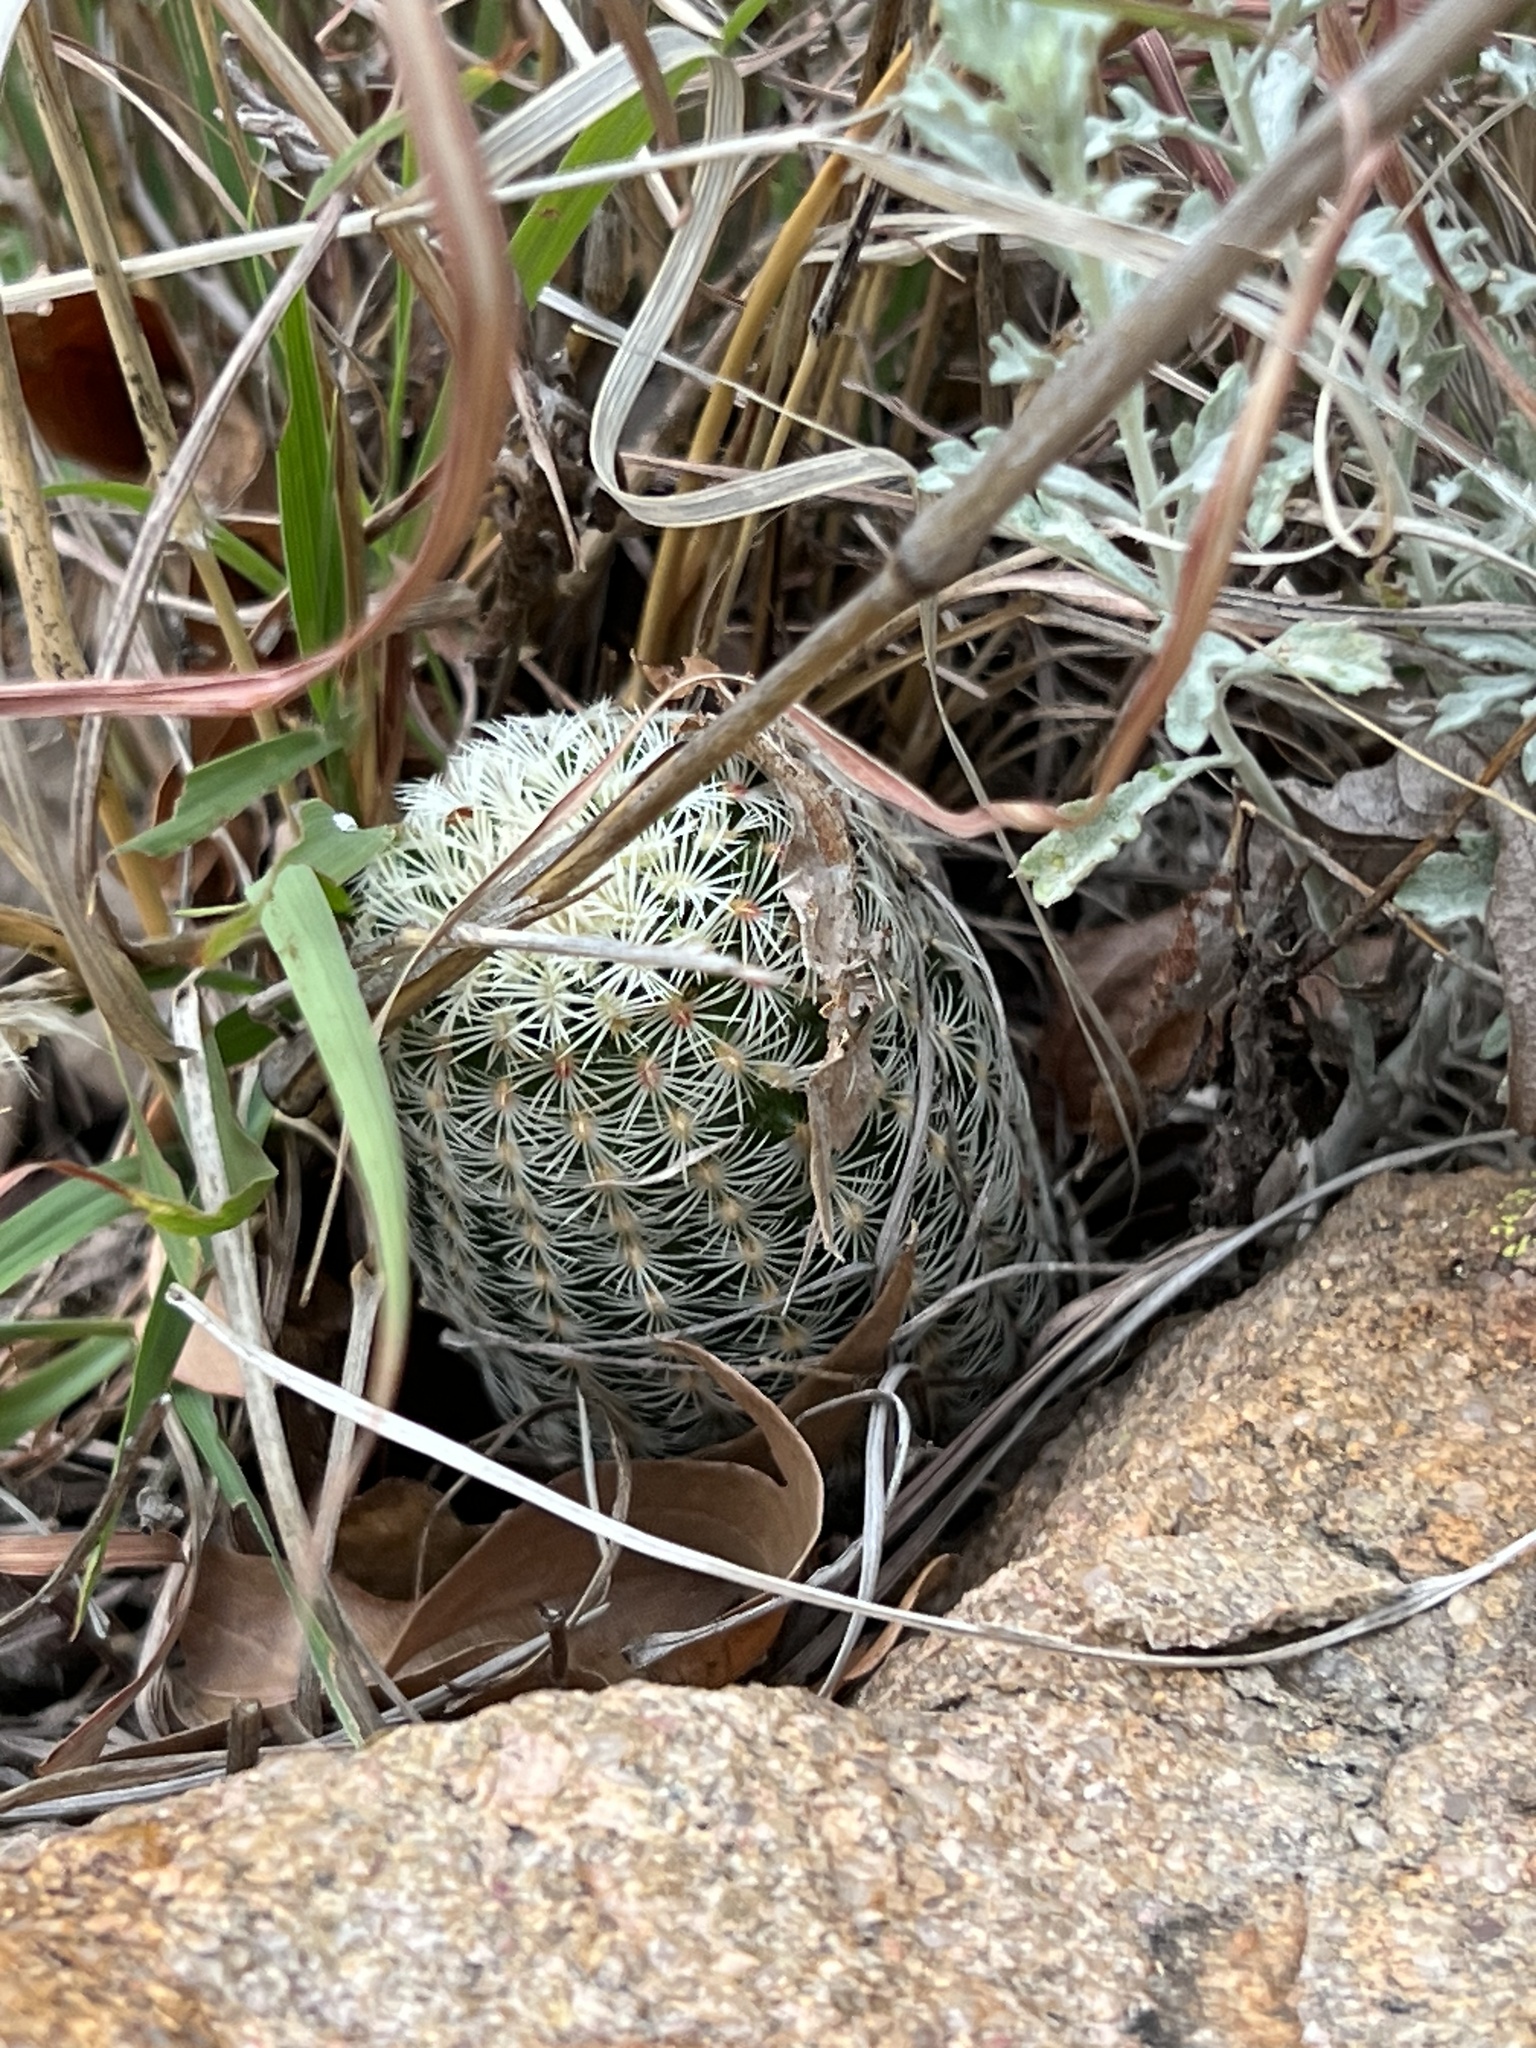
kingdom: Plantae
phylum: Tracheophyta
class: Magnoliopsida
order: Caryophyllales
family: Cactaceae
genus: Echinocereus
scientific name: Echinocereus rigidissimus
